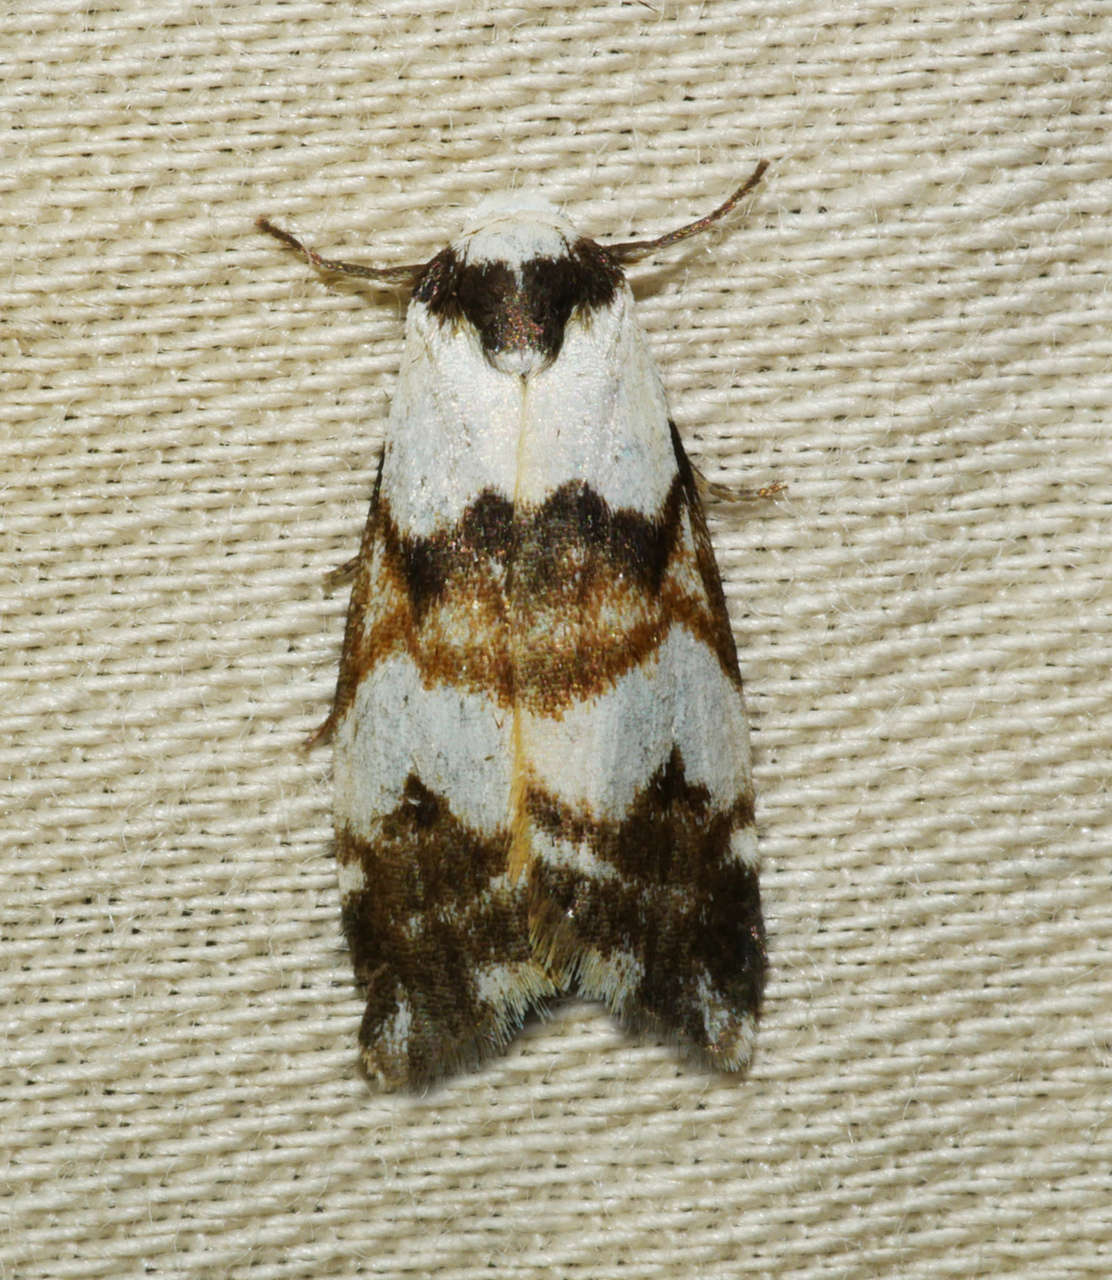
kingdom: Animalia
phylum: Arthropoda
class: Insecta
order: Lepidoptera
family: Erebidae
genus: Thallarcha
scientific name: Thallarcha albicollis
